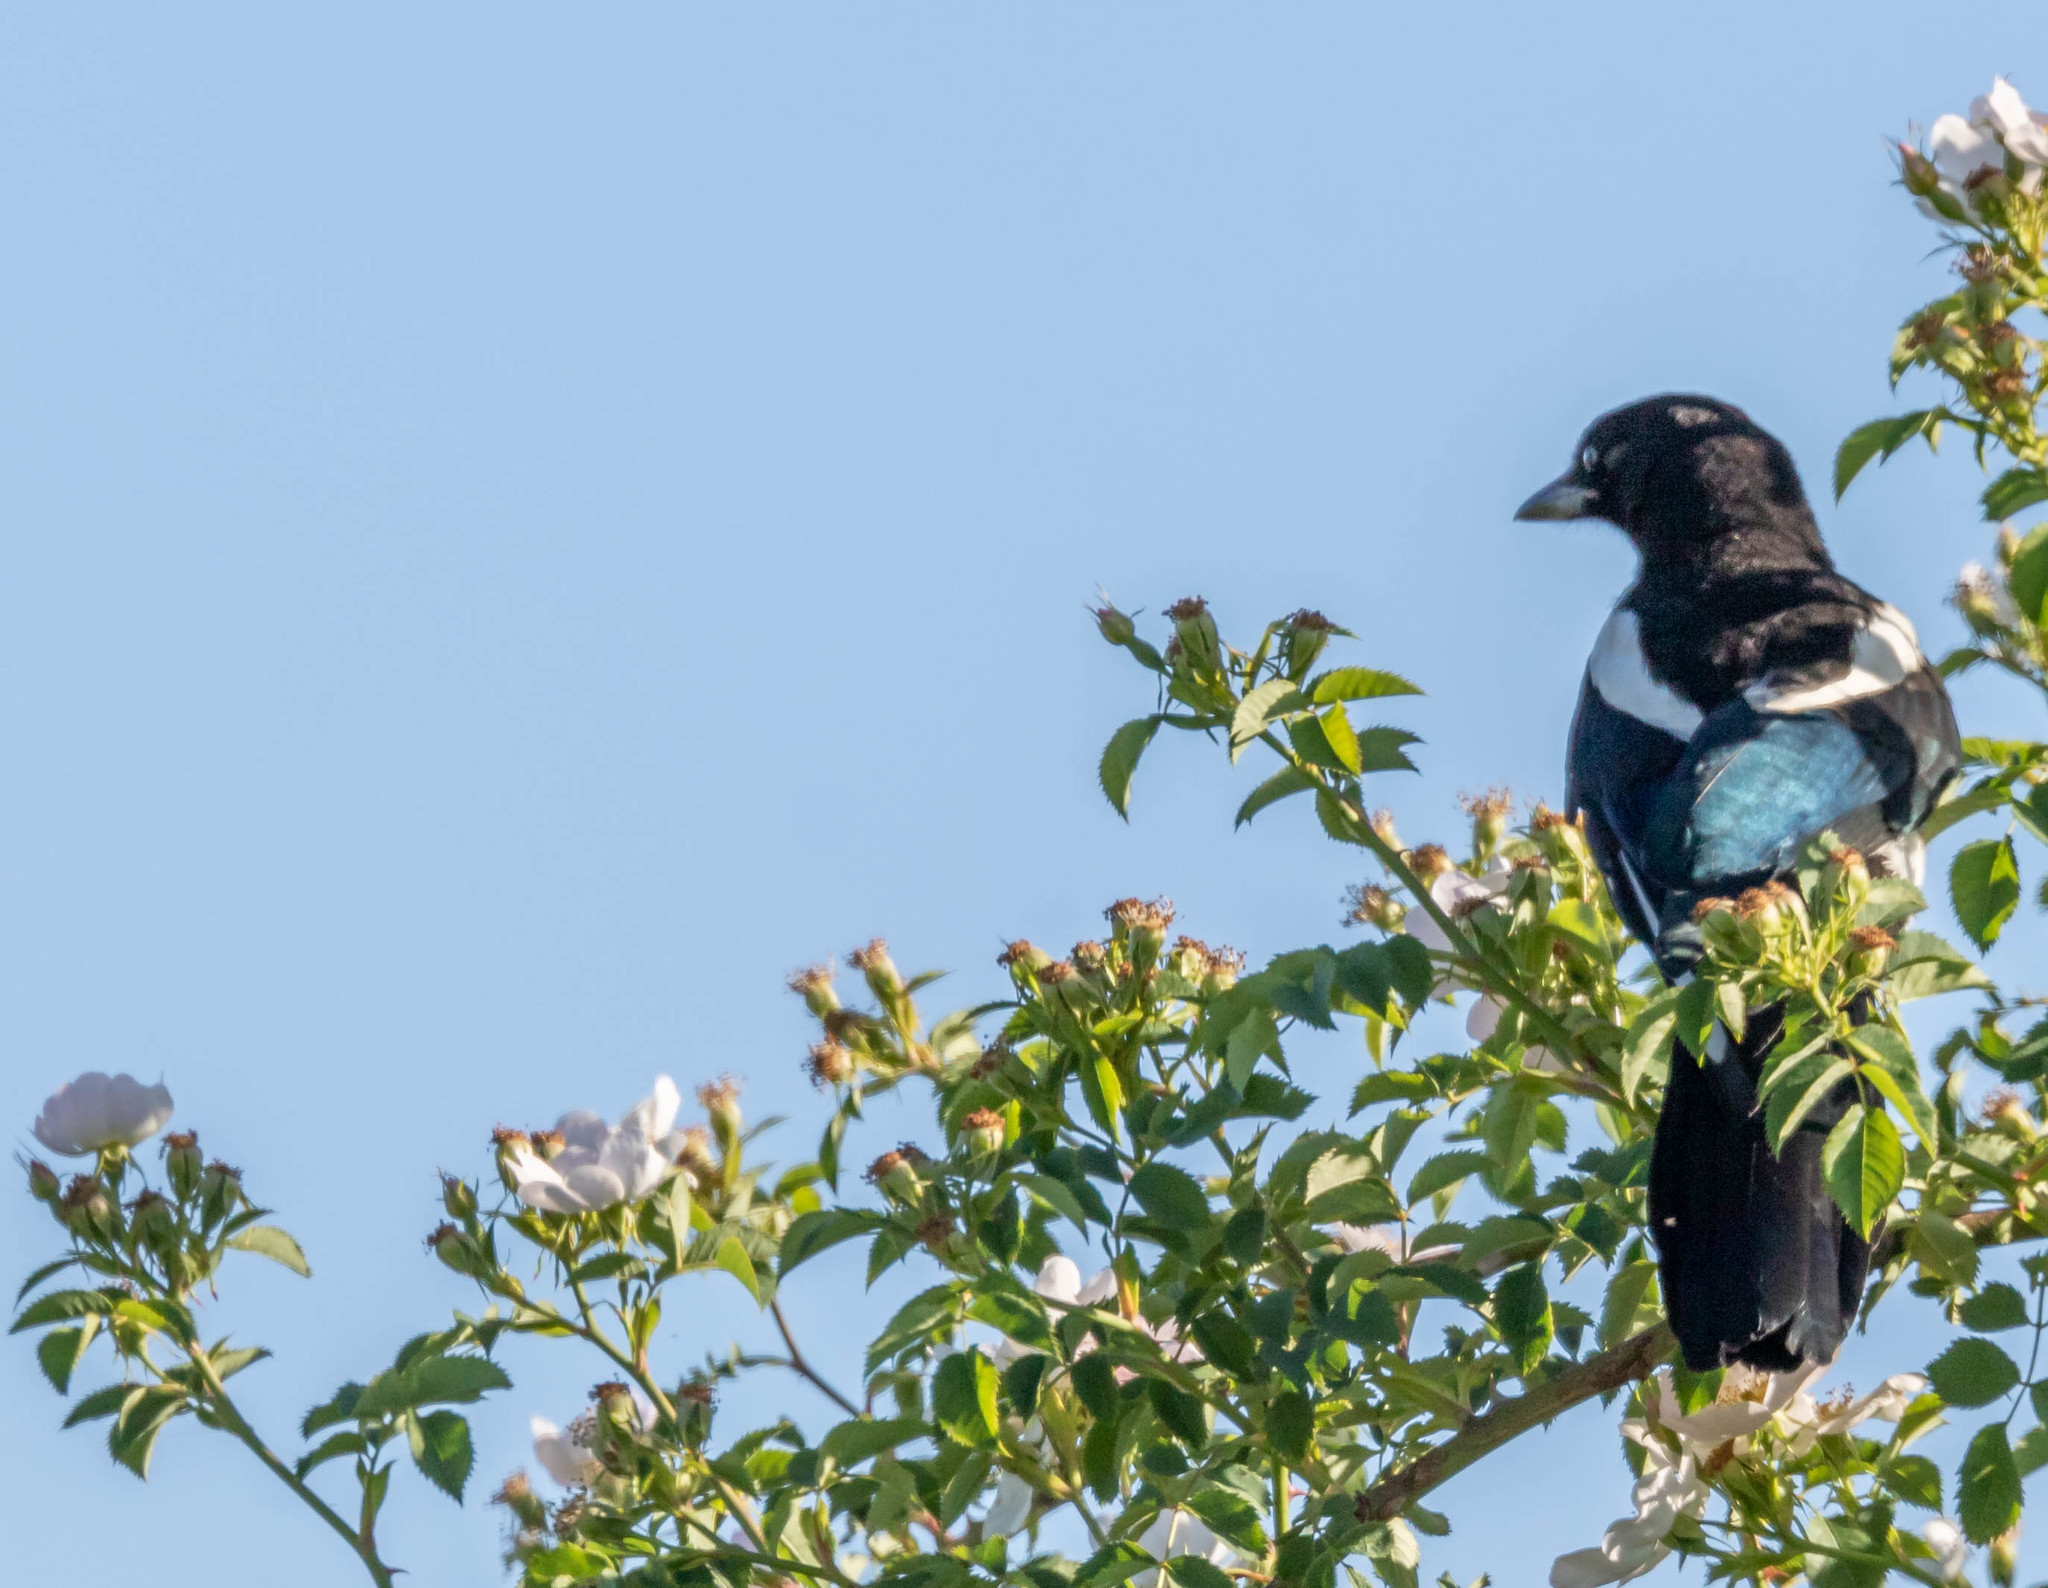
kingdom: Animalia
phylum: Chordata
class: Aves
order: Passeriformes
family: Corvidae
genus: Pica
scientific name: Pica hudsonia
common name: Black-billed magpie
